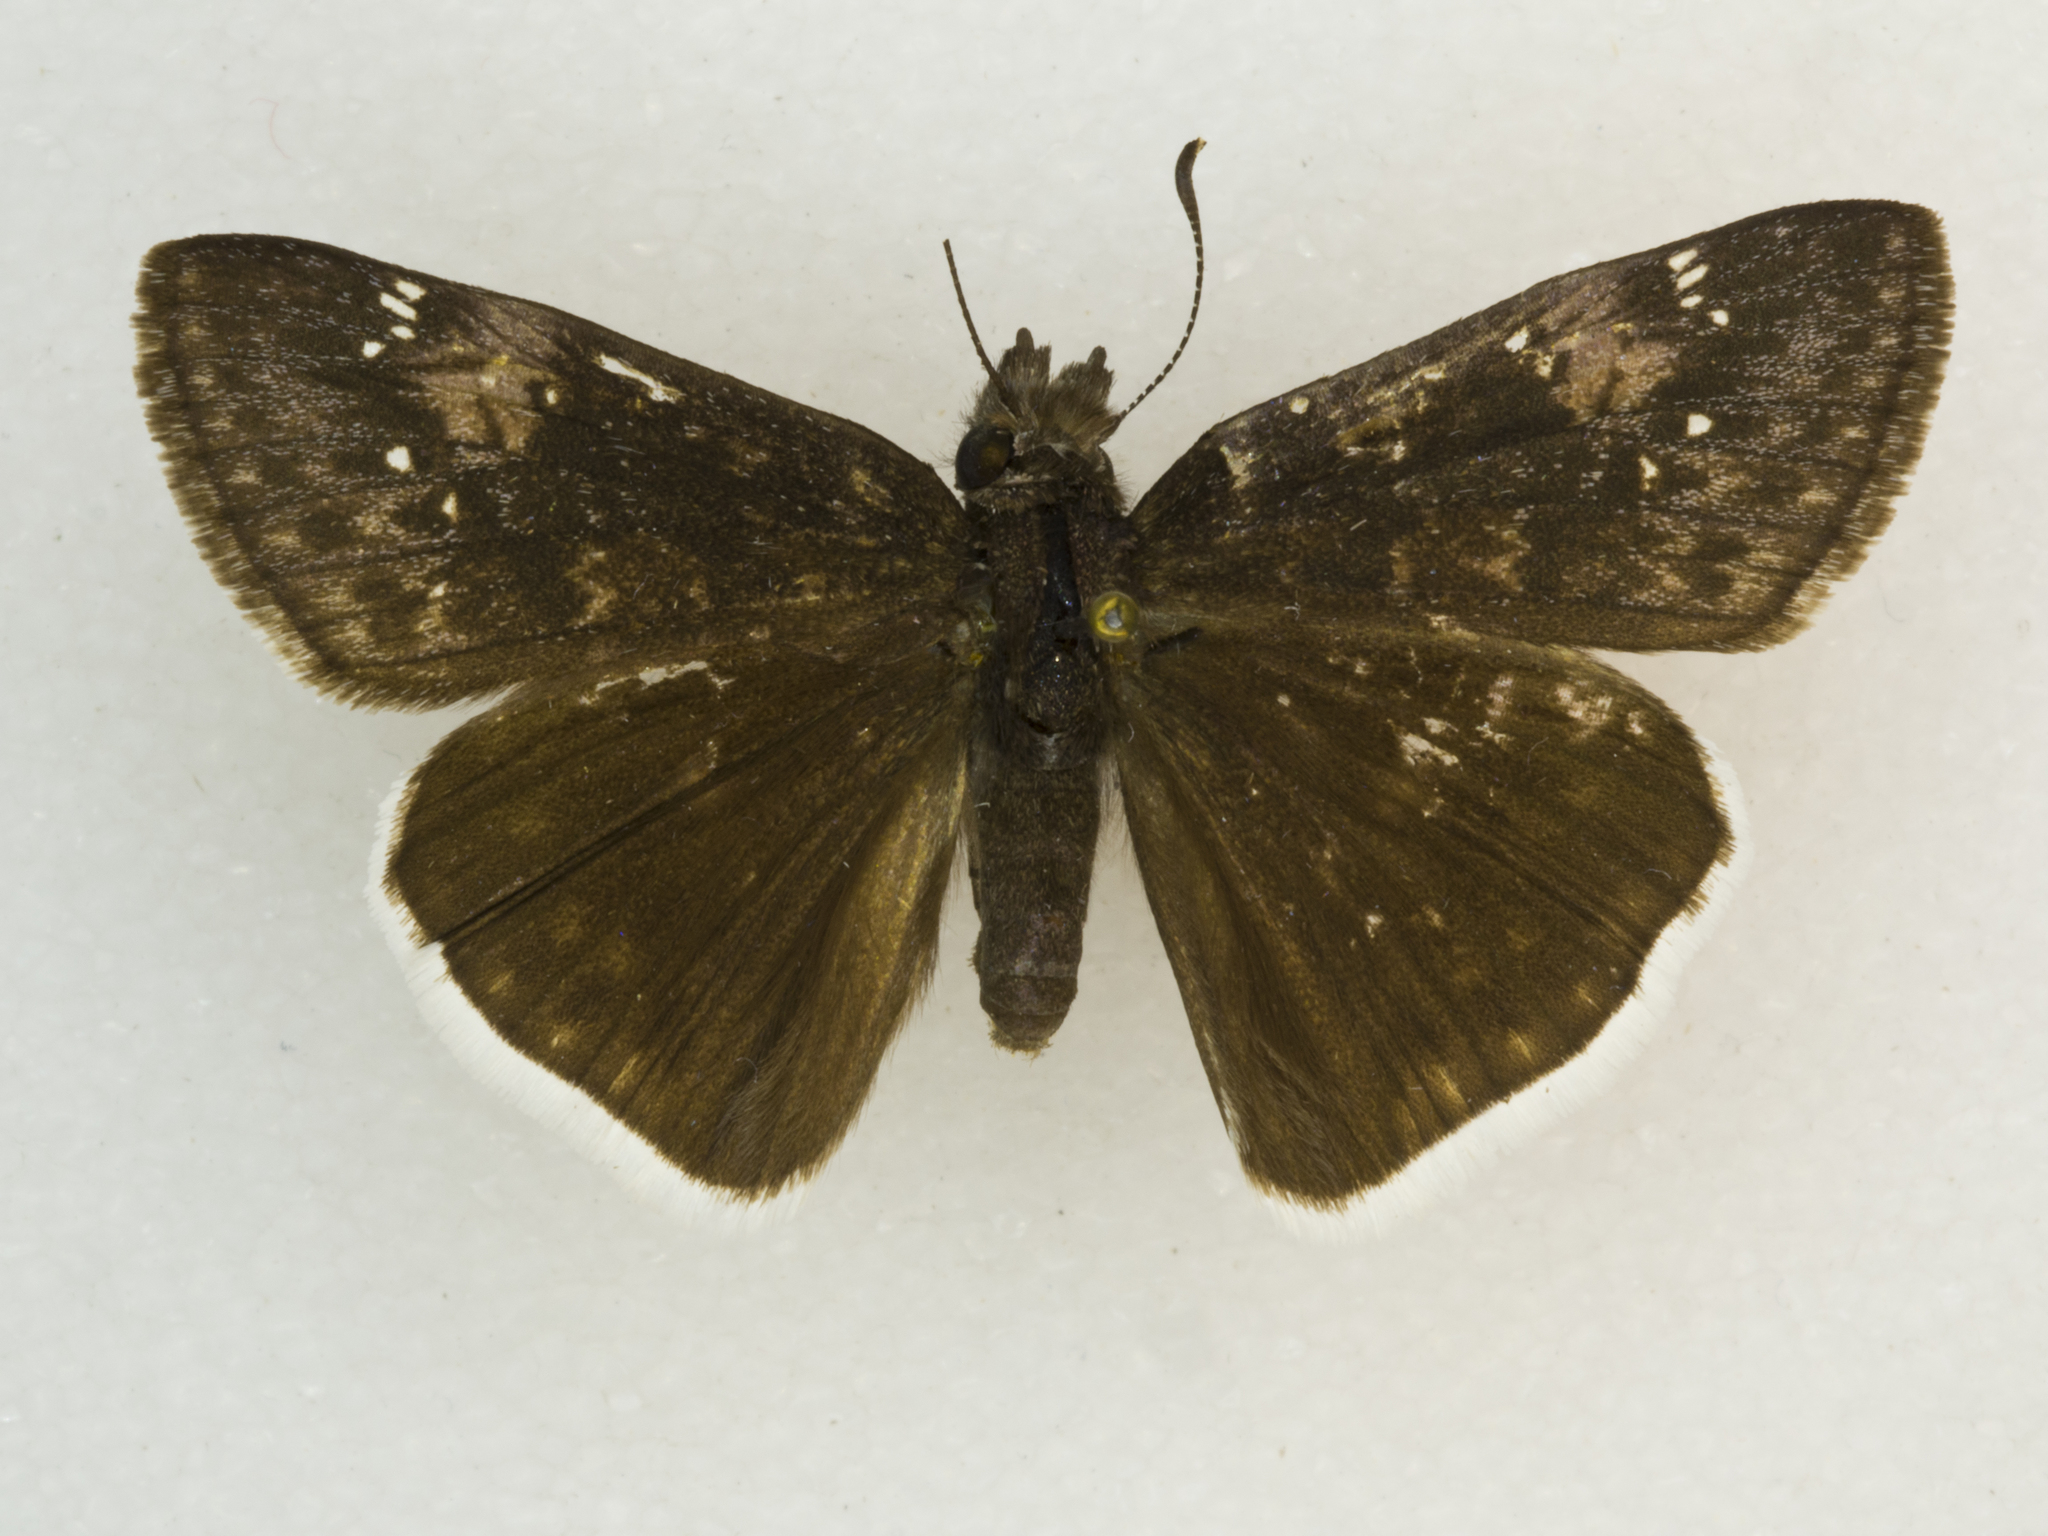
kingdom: Animalia
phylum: Arthropoda
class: Insecta
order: Lepidoptera
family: Hesperiidae
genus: Erynnis
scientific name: Erynnis funeralis
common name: Funereal duskywing
